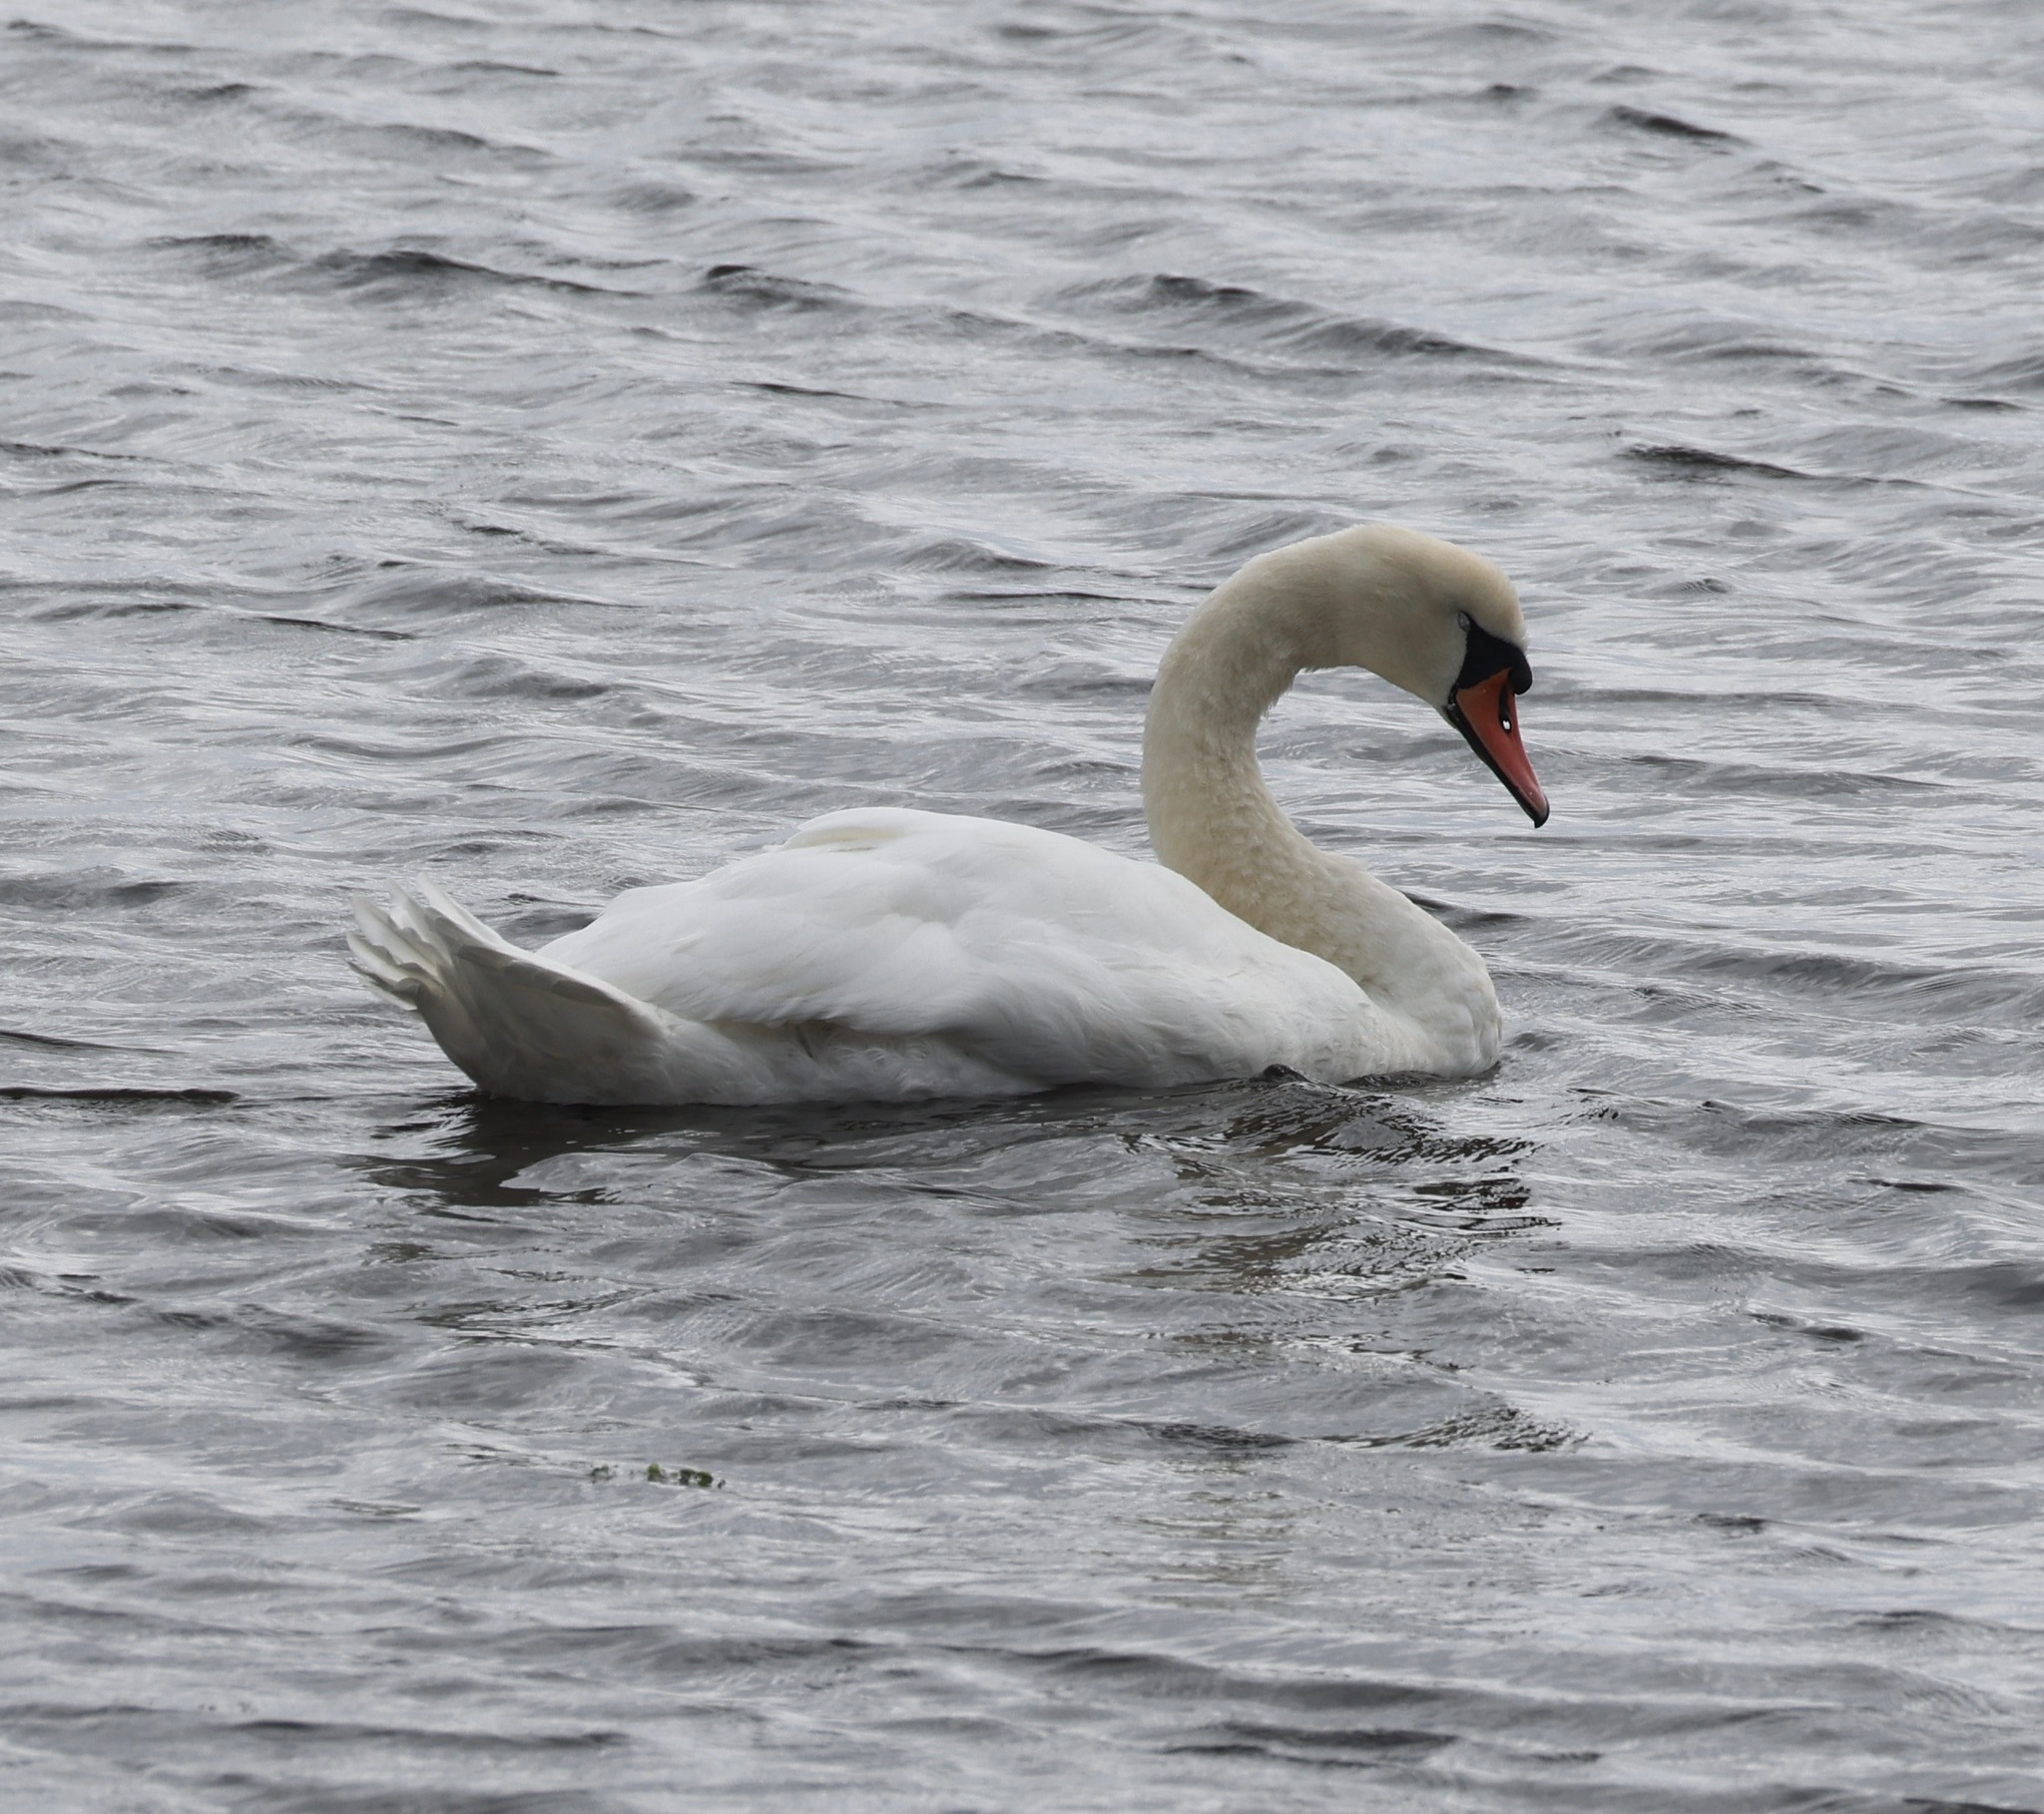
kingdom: Animalia
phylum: Chordata
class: Aves
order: Anseriformes
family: Anatidae
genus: Cygnus
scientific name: Cygnus olor
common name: Mute swan
